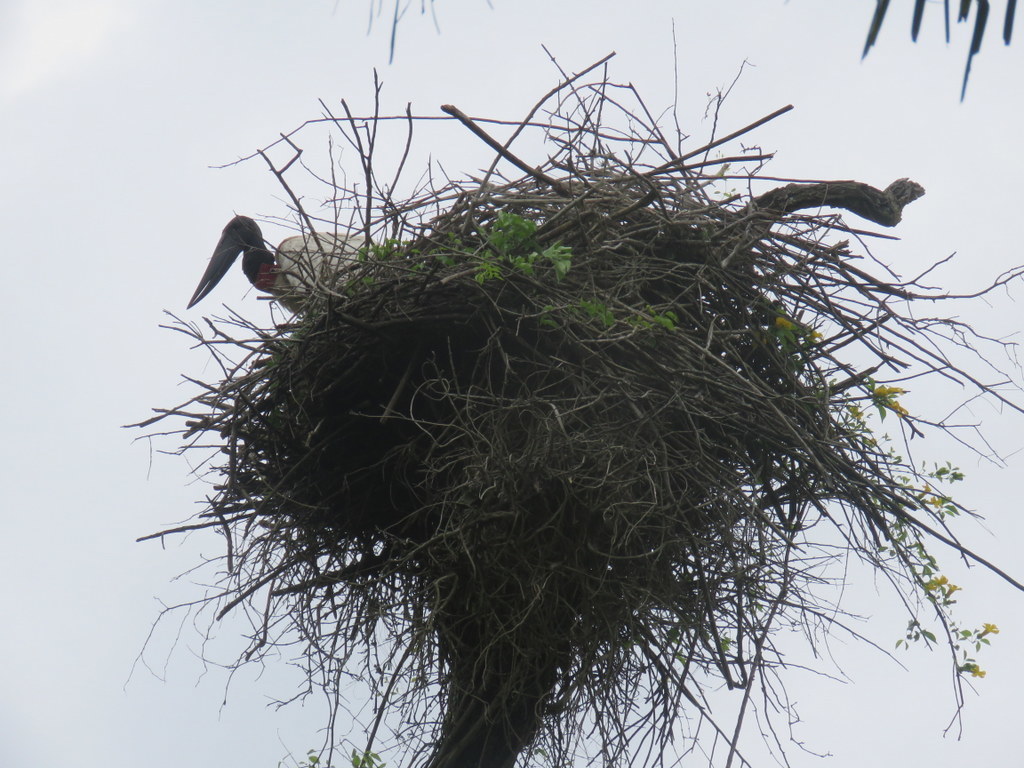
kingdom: Animalia
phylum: Chordata
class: Aves
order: Ciconiiformes
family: Ciconiidae
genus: Jabiru
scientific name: Jabiru mycteria
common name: Jabiru
